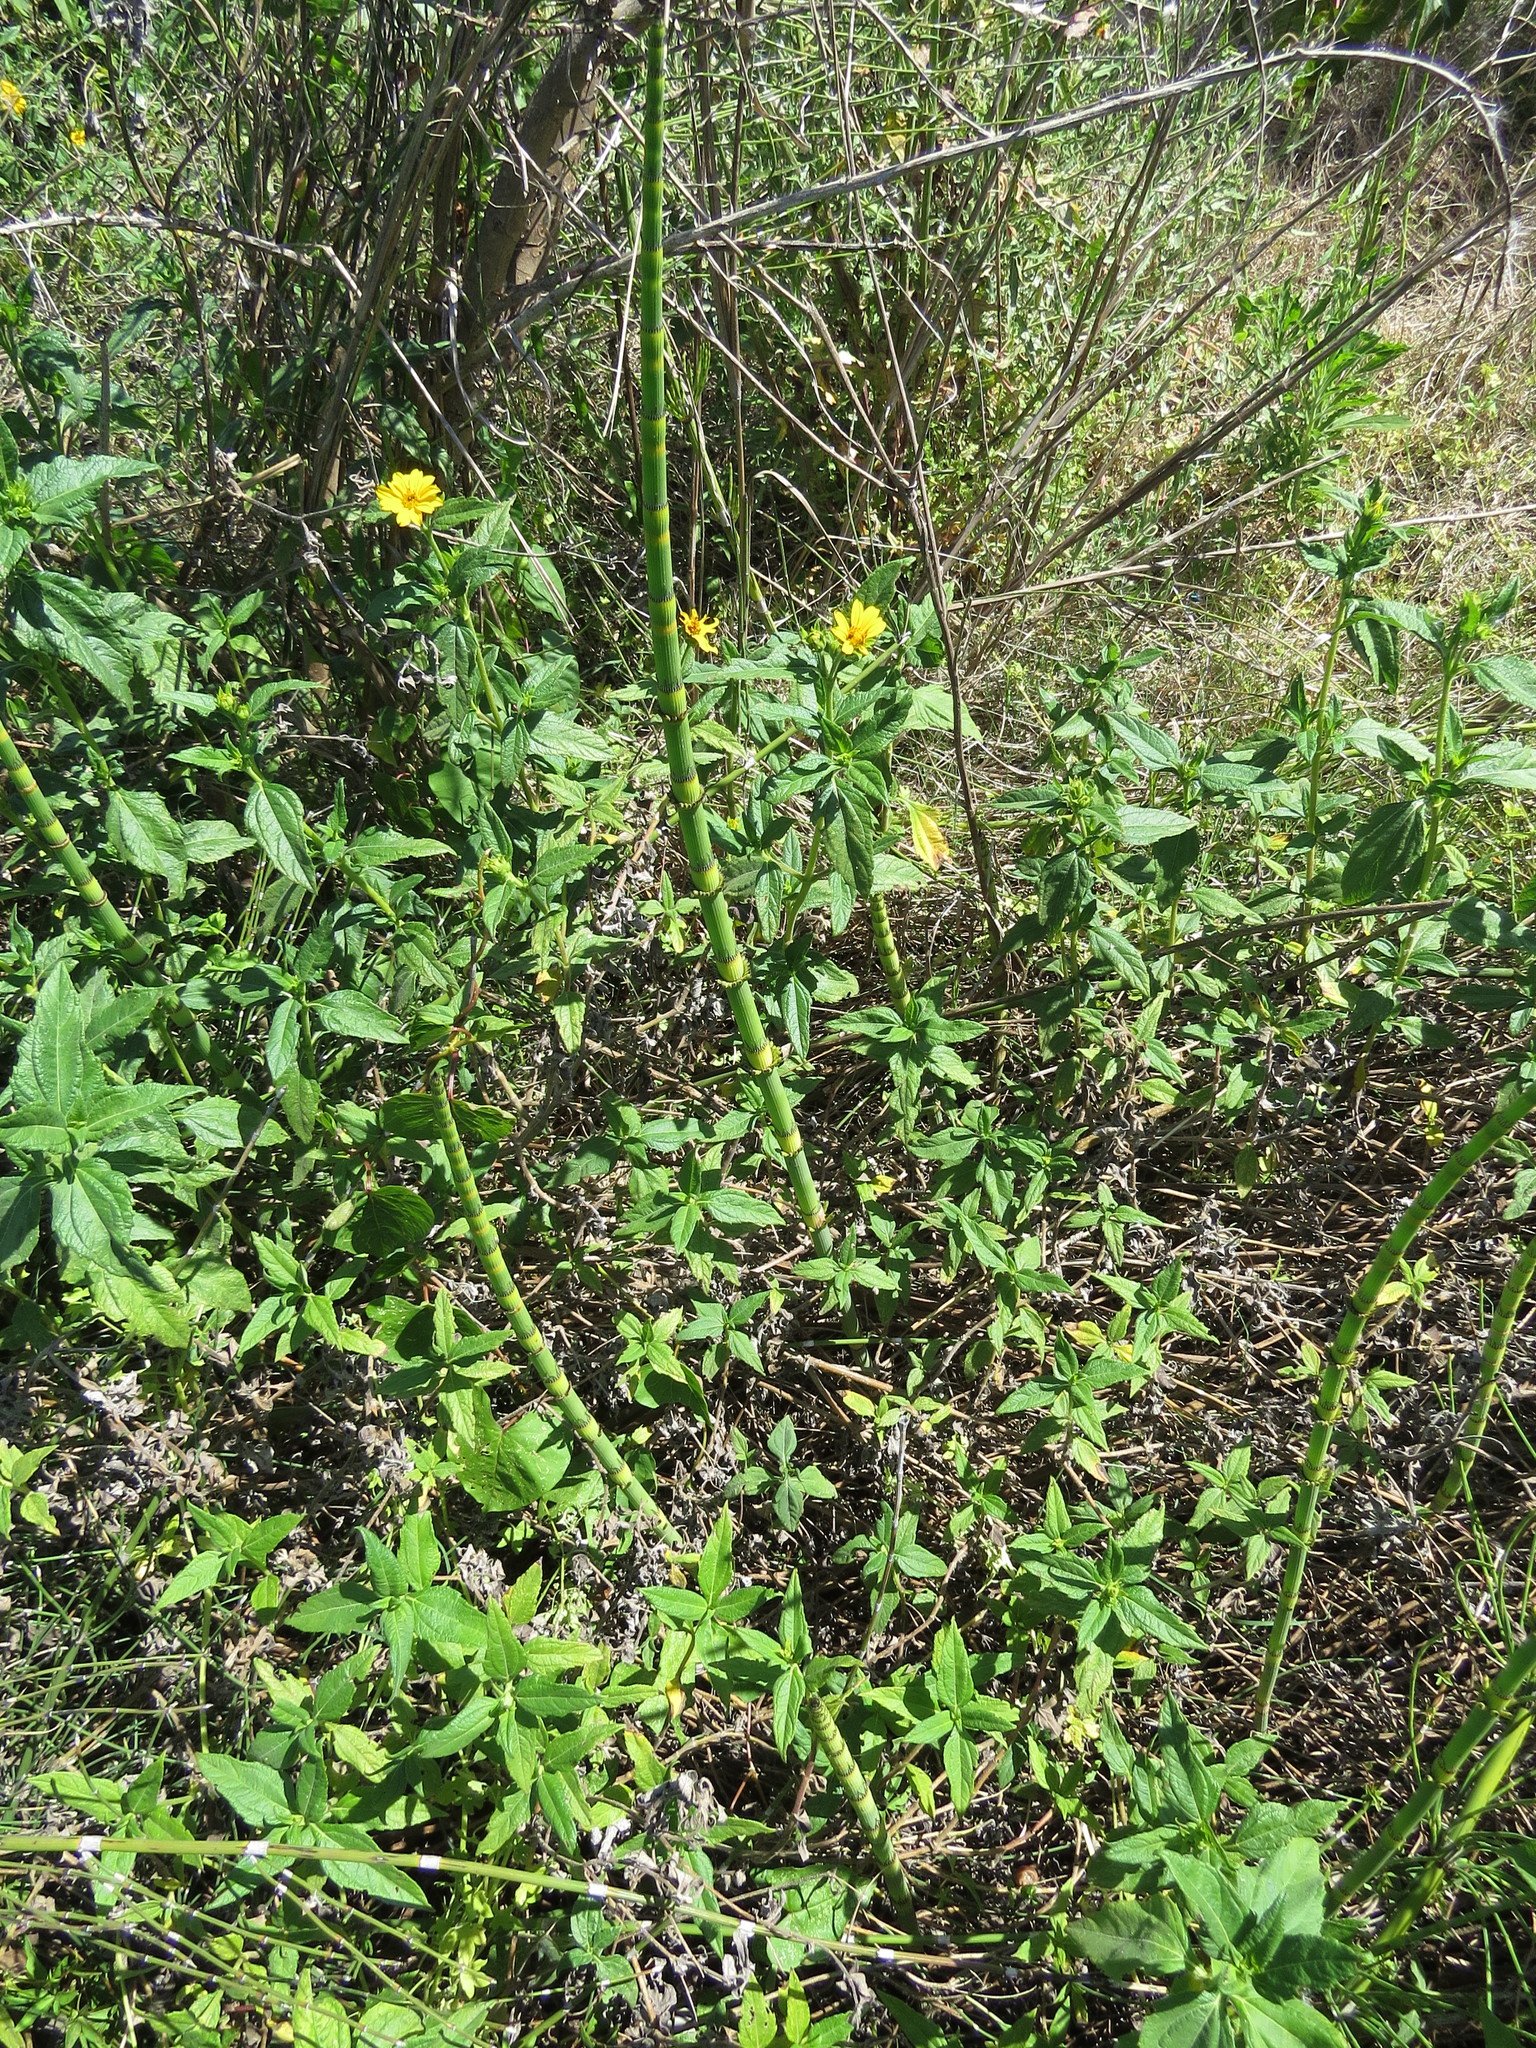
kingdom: Plantae
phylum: Tracheophyta
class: Polypodiopsida
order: Equisetales
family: Equisetaceae
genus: Equisetum
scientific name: Equisetum giganteum
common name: Giant horsetail
